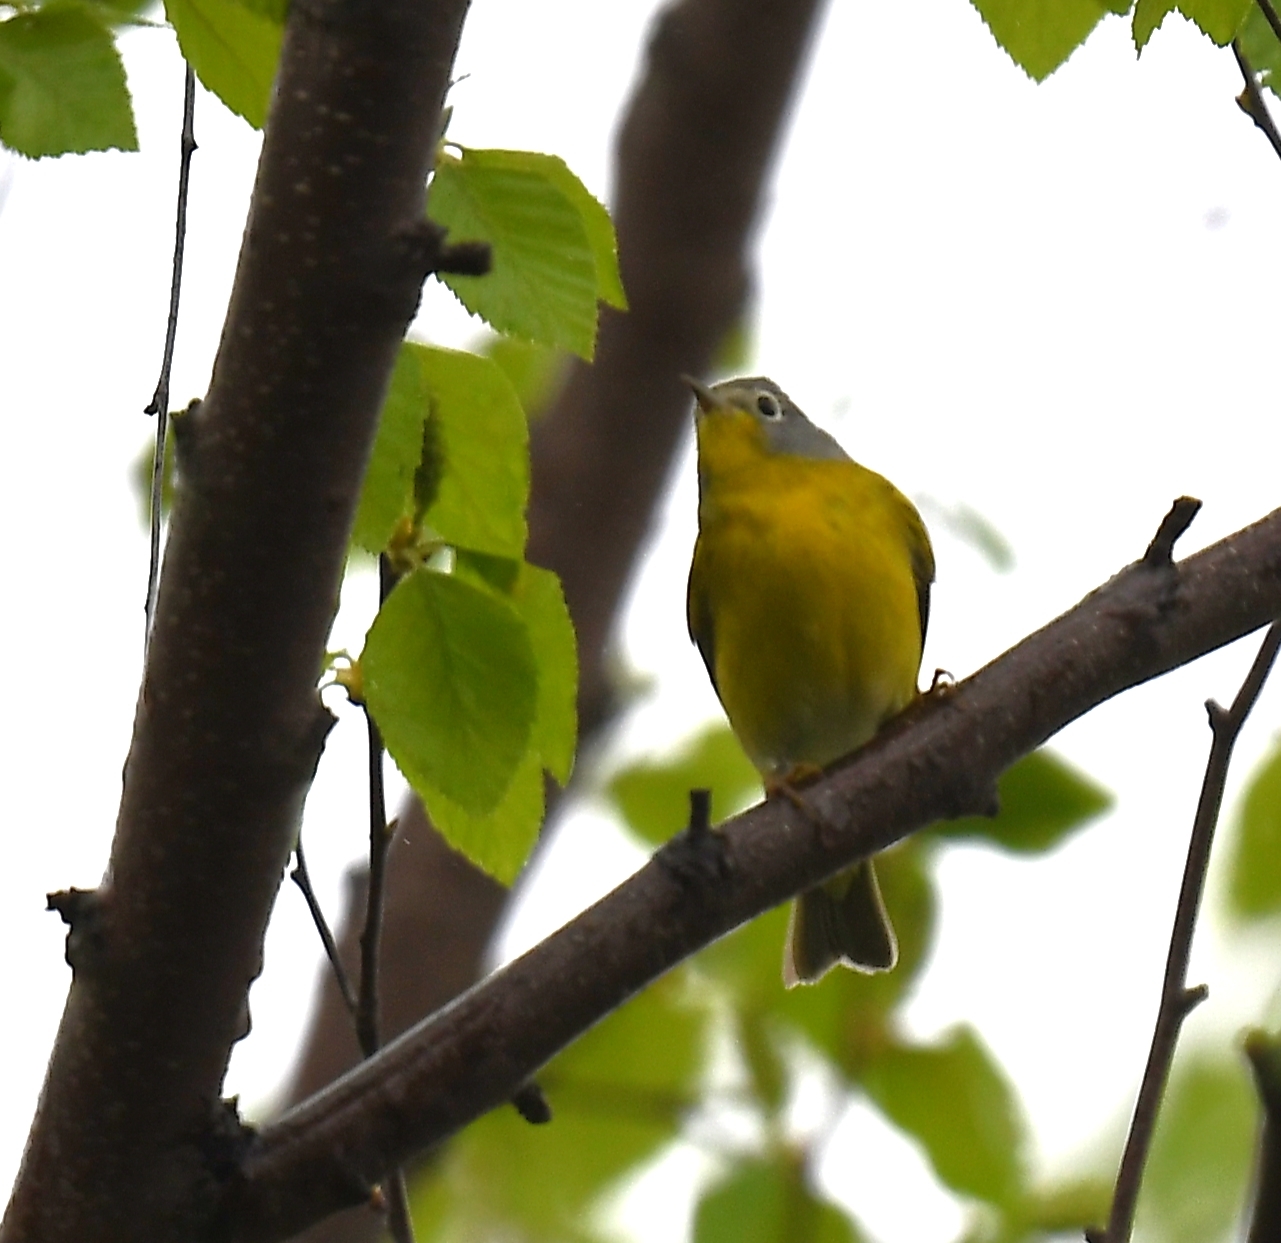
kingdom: Animalia
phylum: Chordata
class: Aves
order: Passeriformes
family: Parulidae
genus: Leiothlypis
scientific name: Leiothlypis ruficapilla
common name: Nashville warbler
